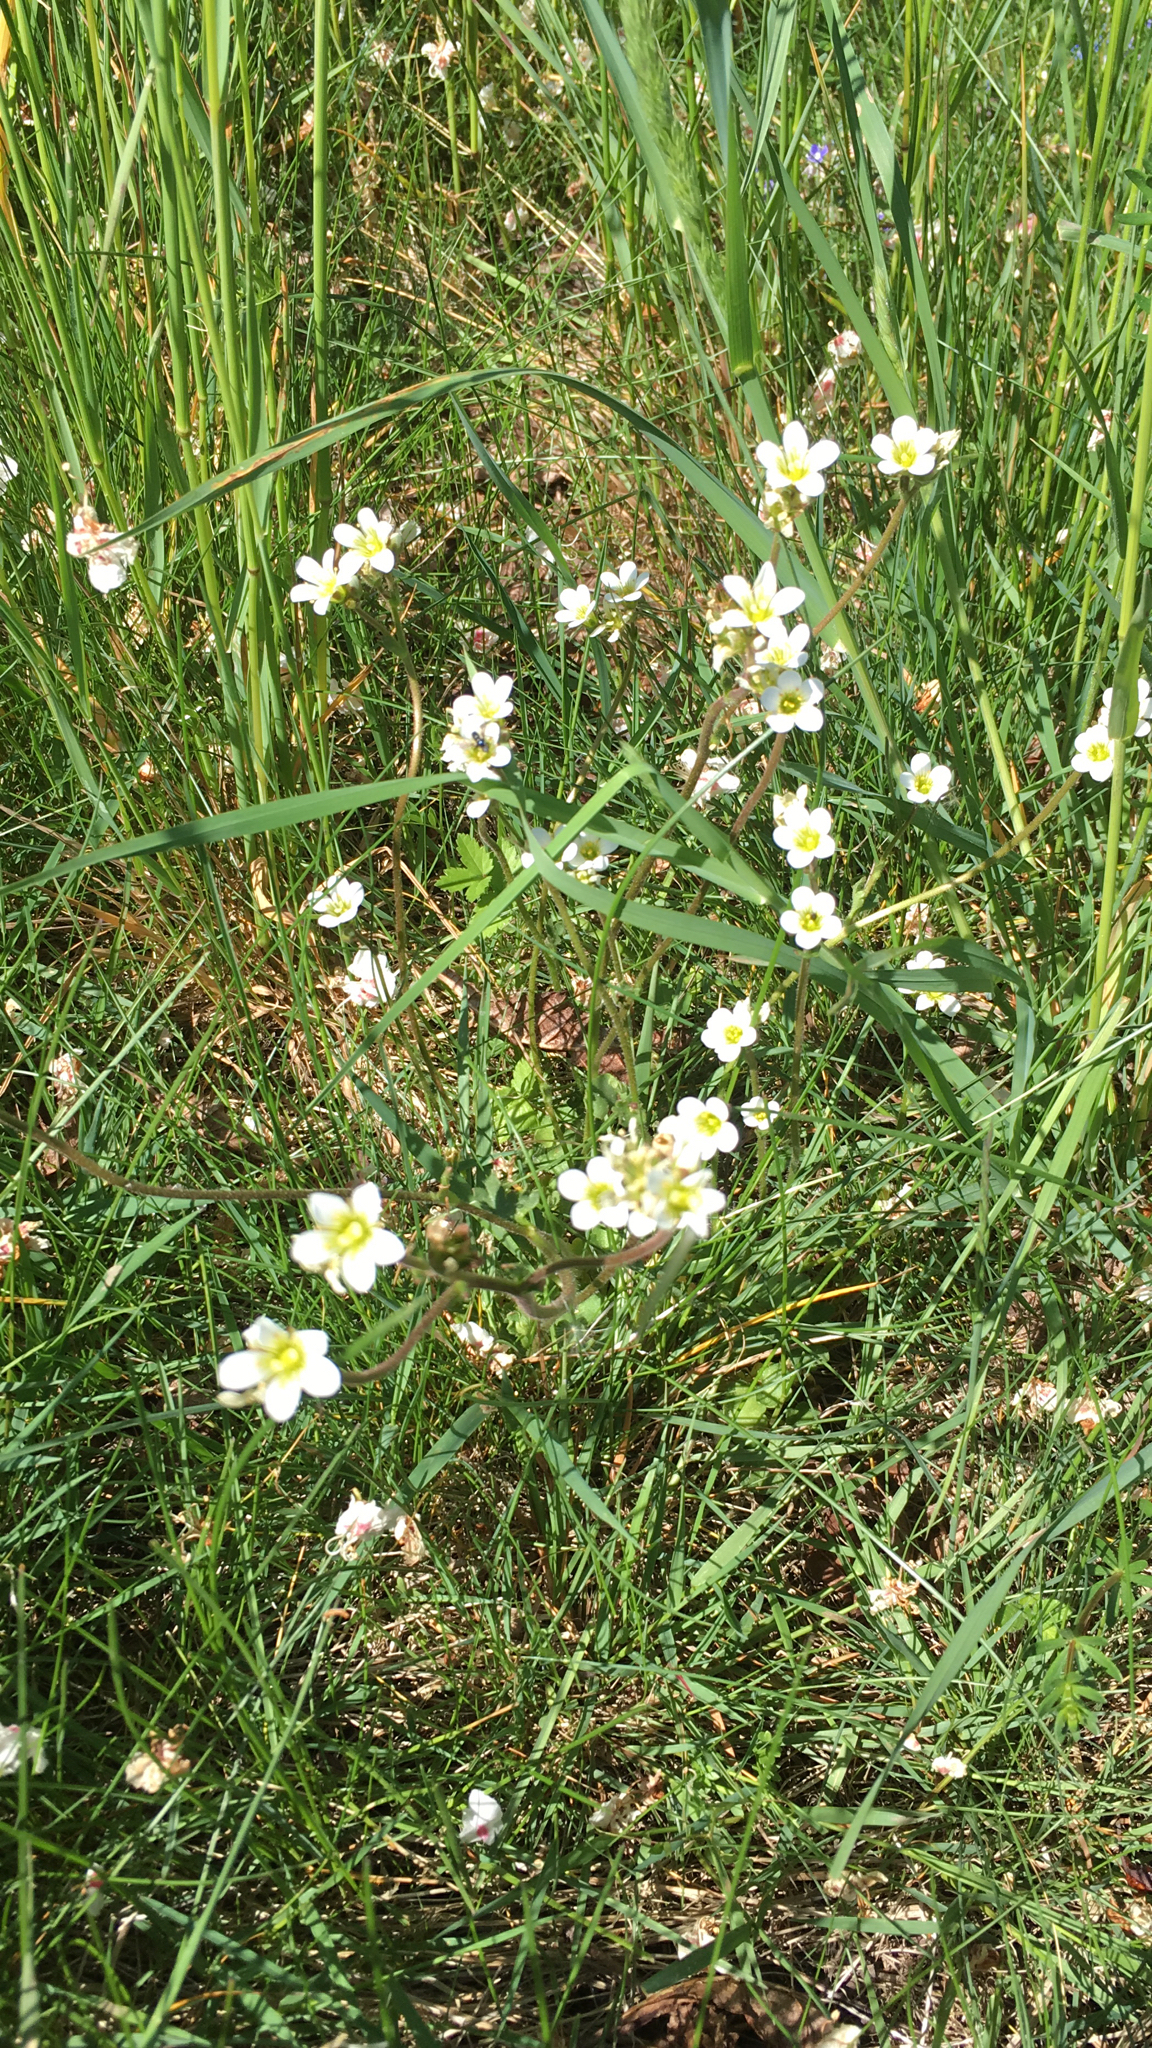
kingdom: Plantae
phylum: Tracheophyta
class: Magnoliopsida
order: Saxifragales
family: Saxifragaceae
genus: Saxifraga
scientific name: Saxifraga granulata
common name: Meadow saxifrage
